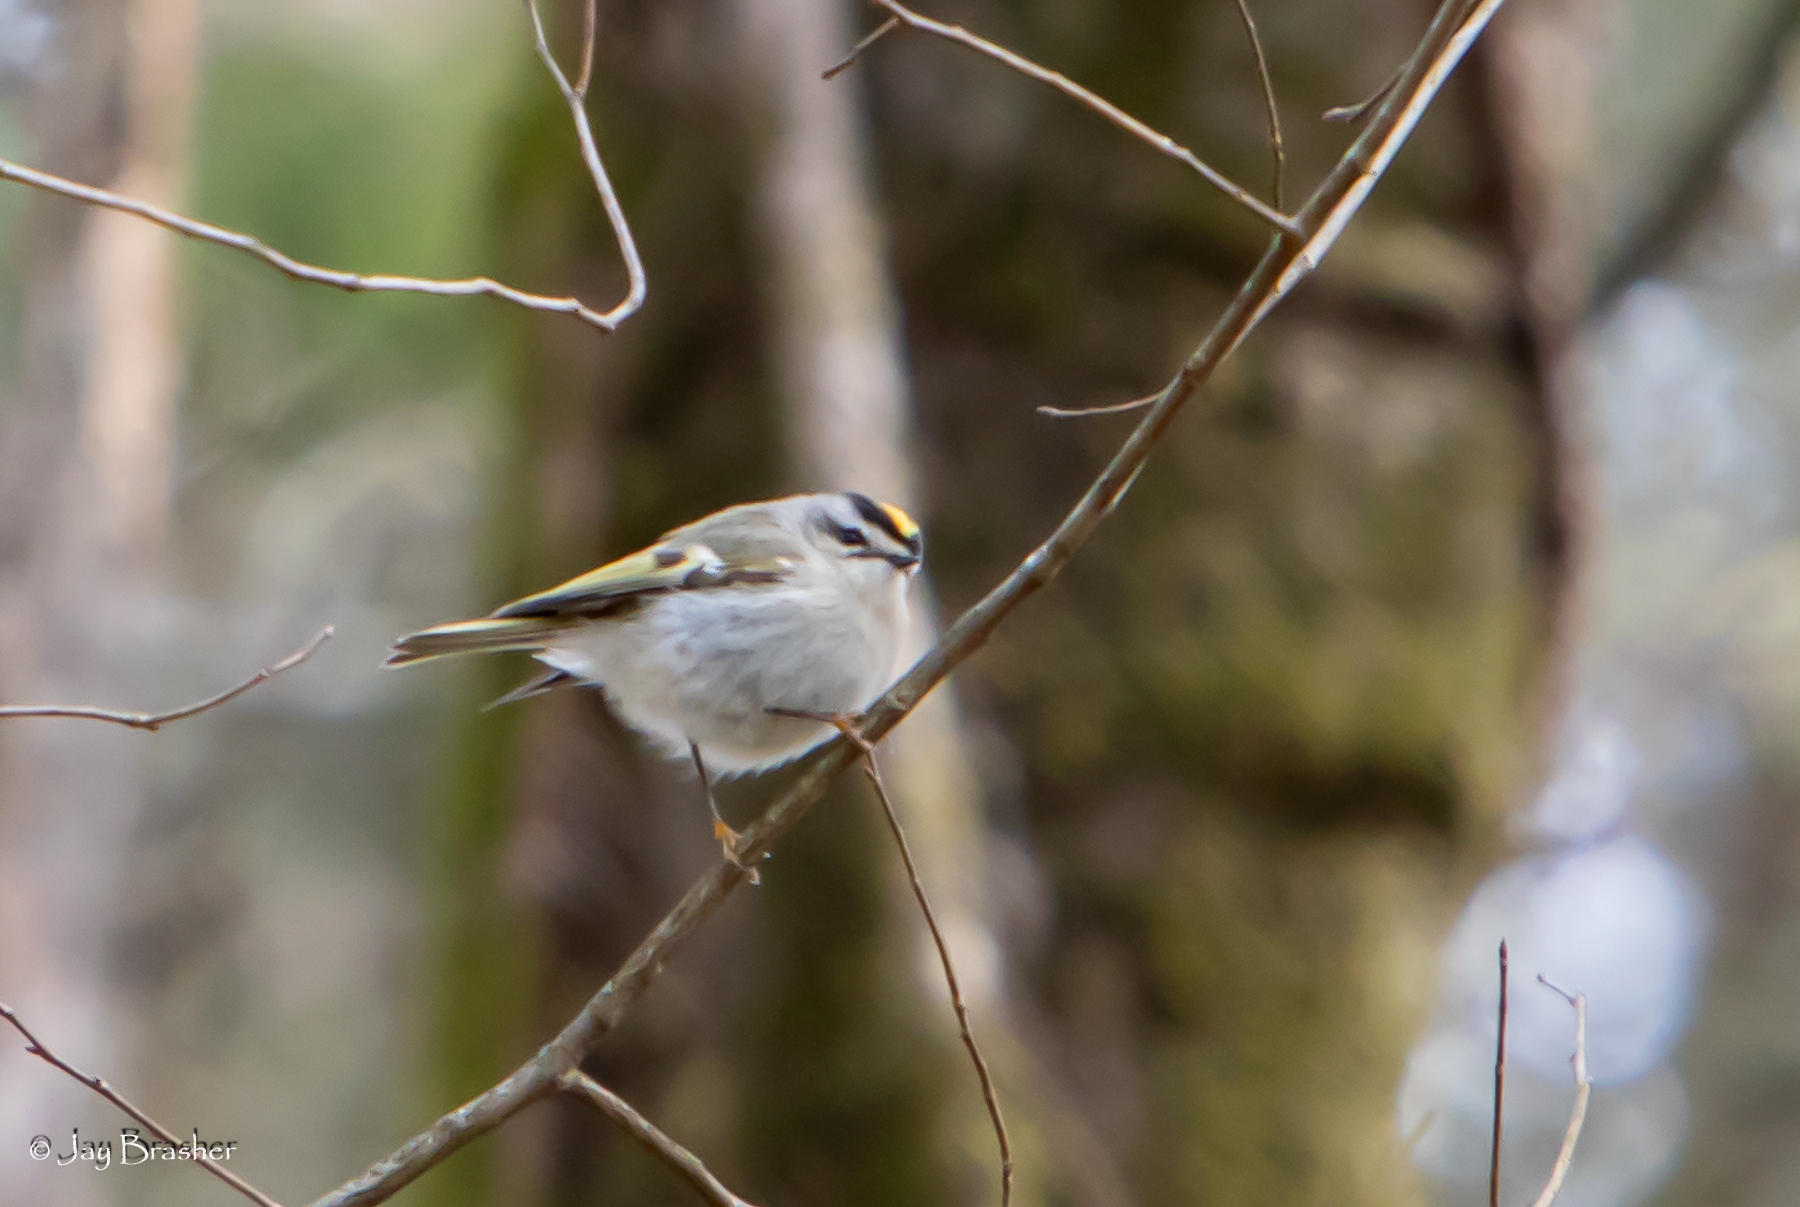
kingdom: Animalia
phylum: Chordata
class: Aves
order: Passeriformes
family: Regulidae
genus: Regulus
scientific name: Regulus satrapa
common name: Golden-crowned kinglet
